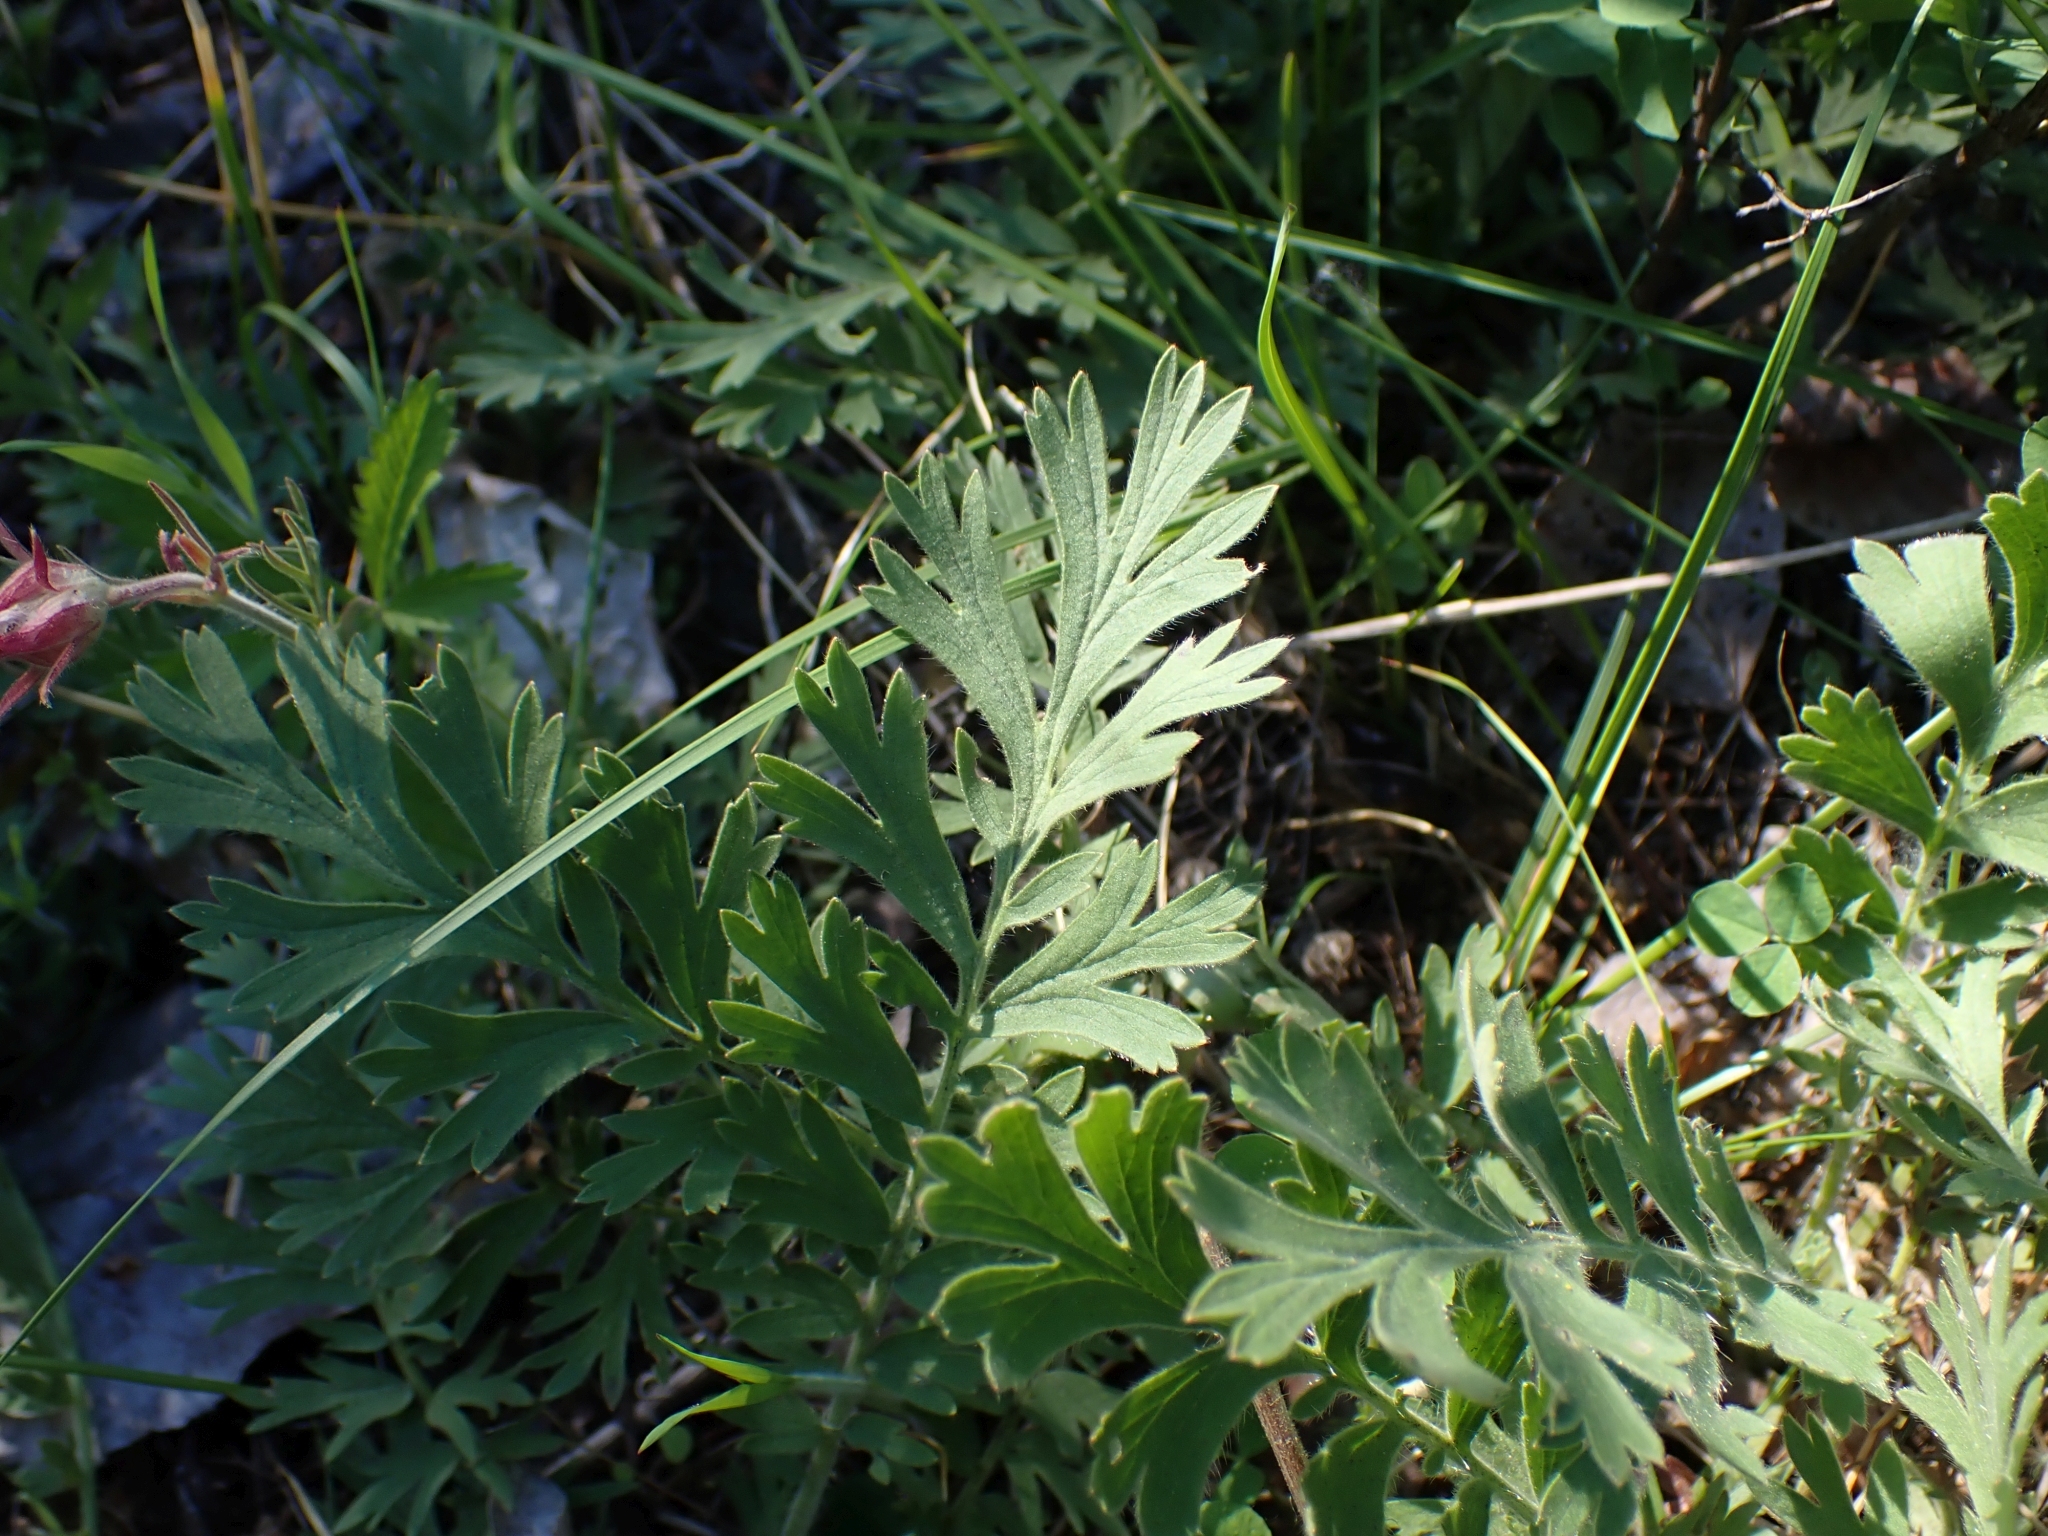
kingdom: Plantae
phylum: Tracheophyta
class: Magnoliopsida
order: Rosales
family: Rosaceae
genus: Geum
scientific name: Geum triflorum
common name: Old man's whiskers
